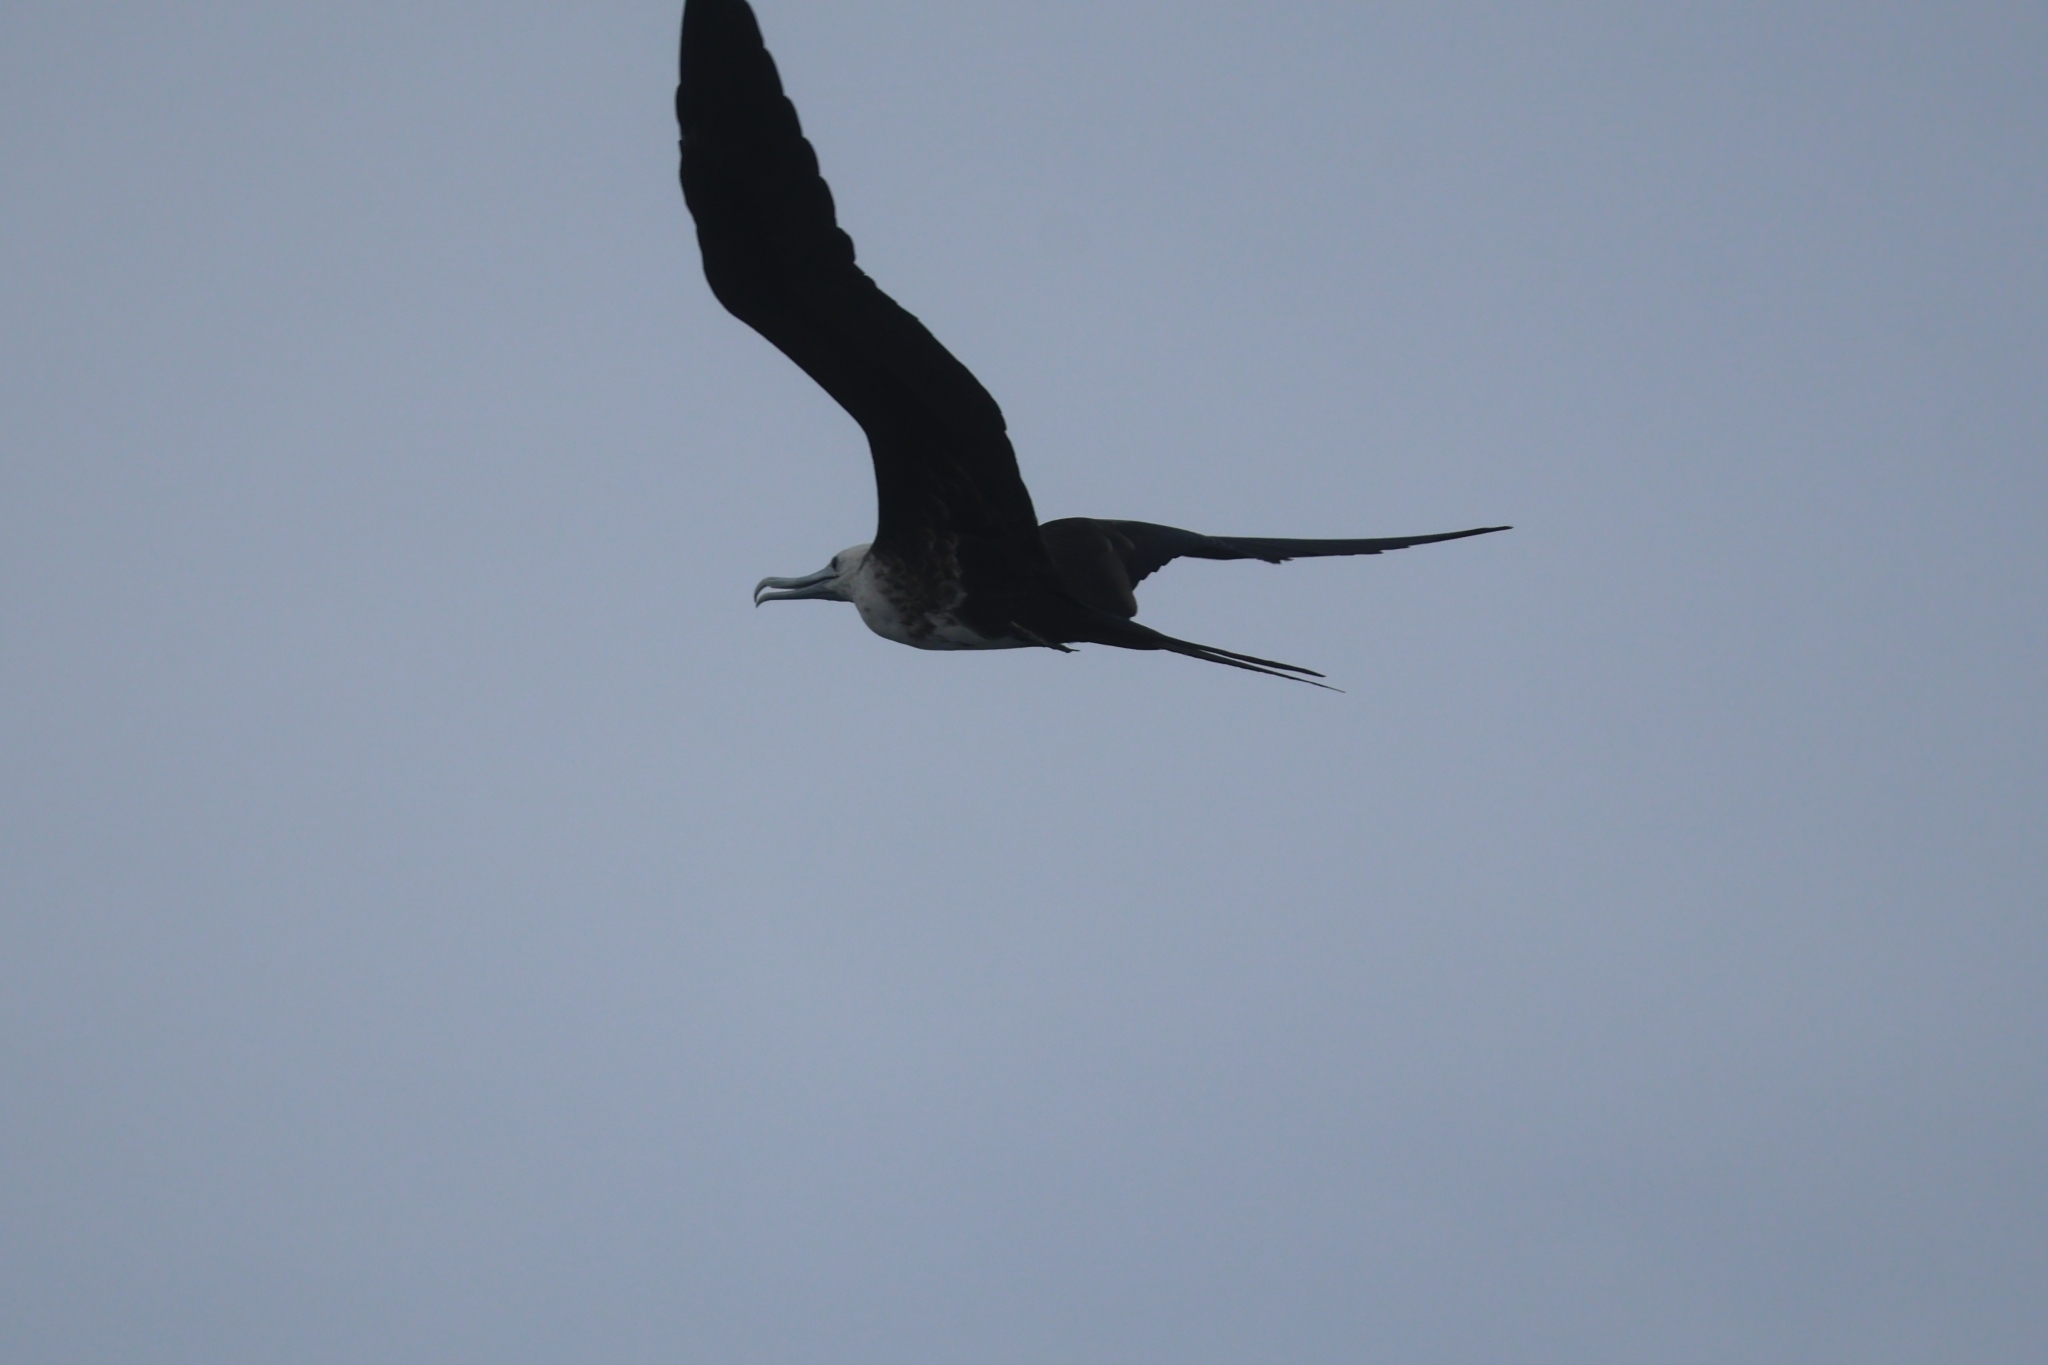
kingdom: Animalia
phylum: Chordata
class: Aves
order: Suliformes
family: Fregatidae
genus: Fregata
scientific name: Fregata magnificens
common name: Magnificent frigatebird
